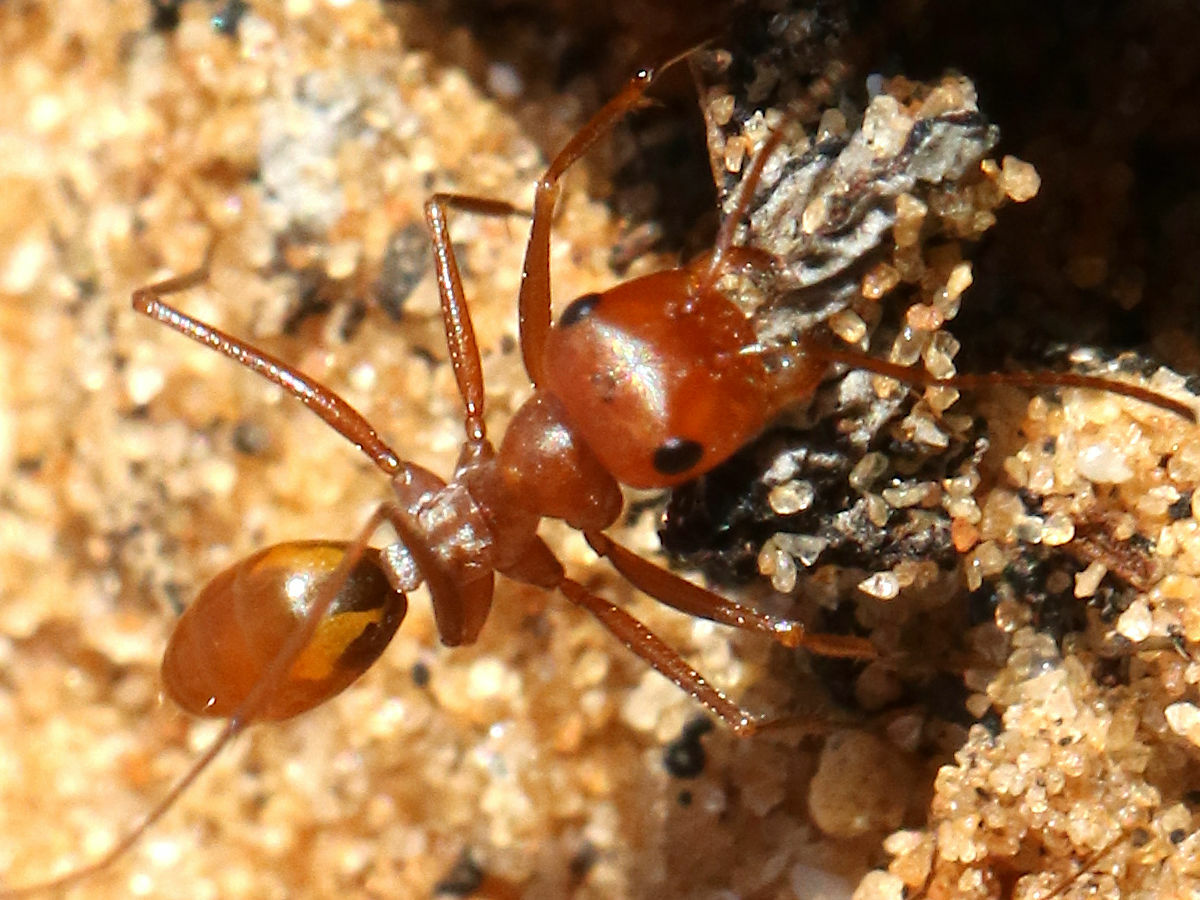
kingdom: Animalia
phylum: Arthropoda
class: Insecta
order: Hymenoptera
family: Formicidae
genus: Cataglyphis
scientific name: Cataglyphis lividus
